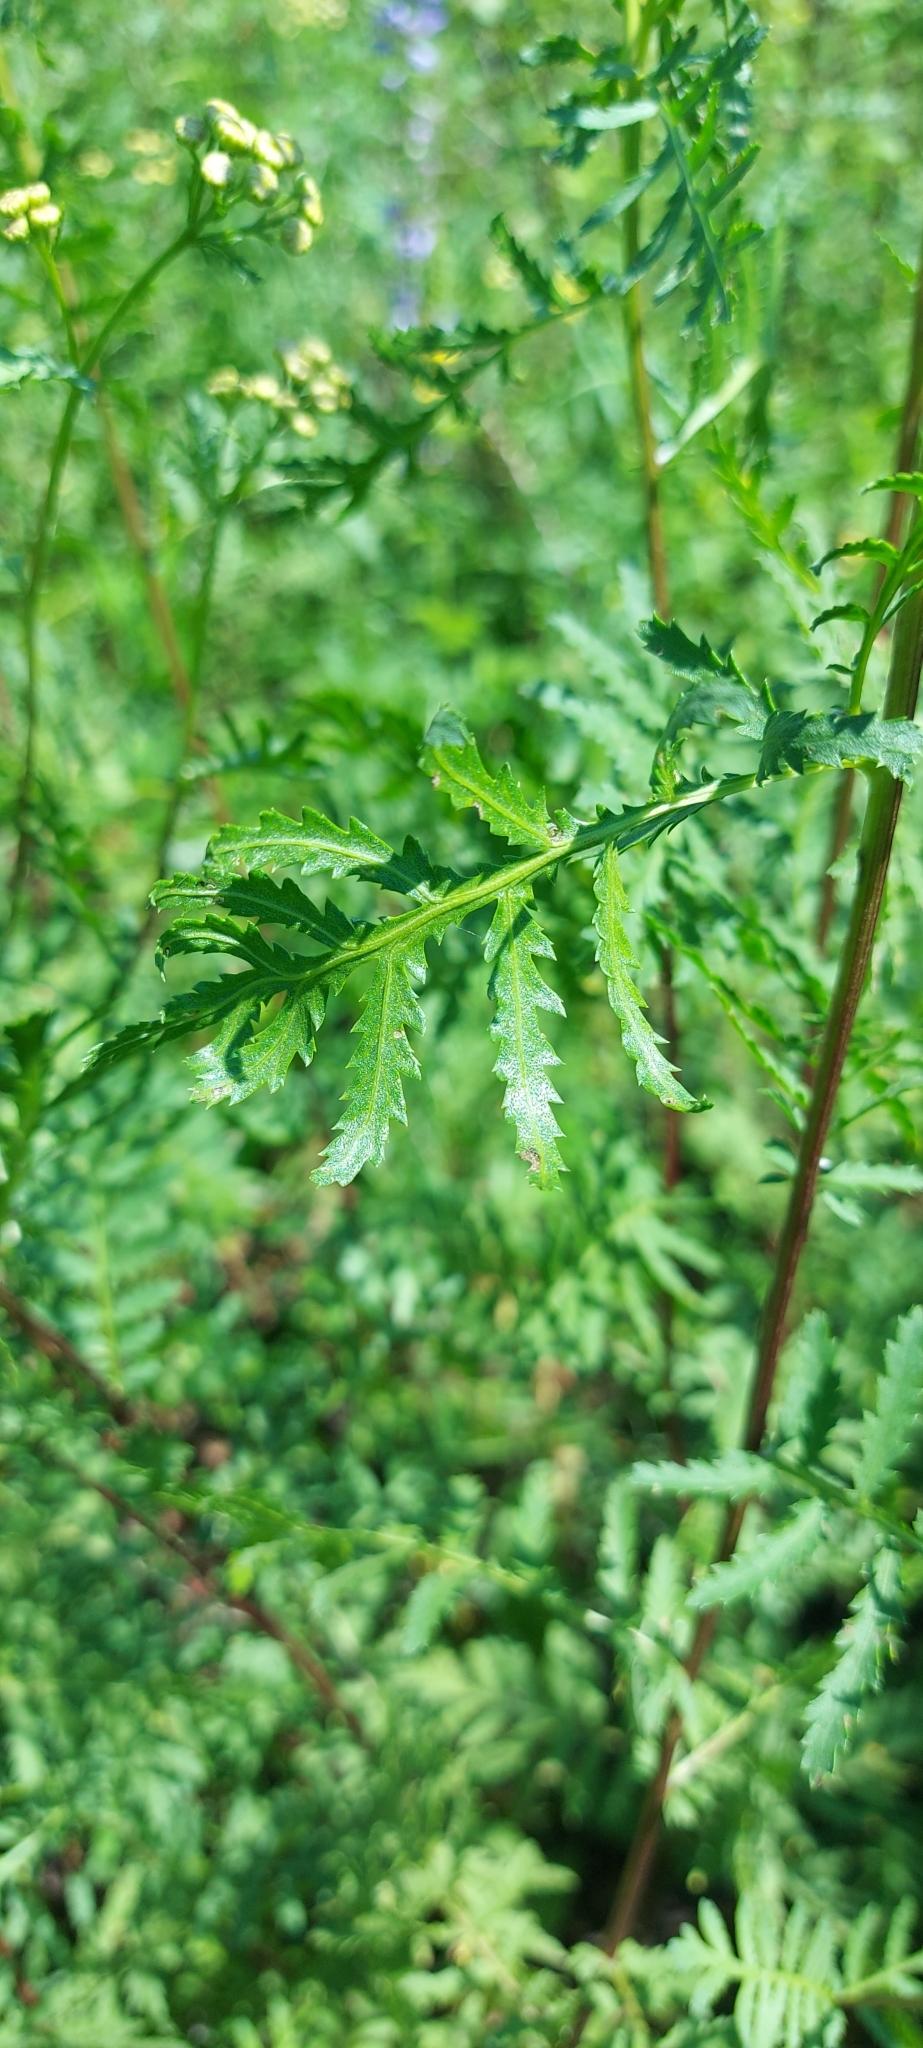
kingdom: Plantae
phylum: Tracheophyta
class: Magnoliopsida
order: Asterales
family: Asteraceae
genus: Tanacetum
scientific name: Tanacetum vulgare
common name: Common tansy
